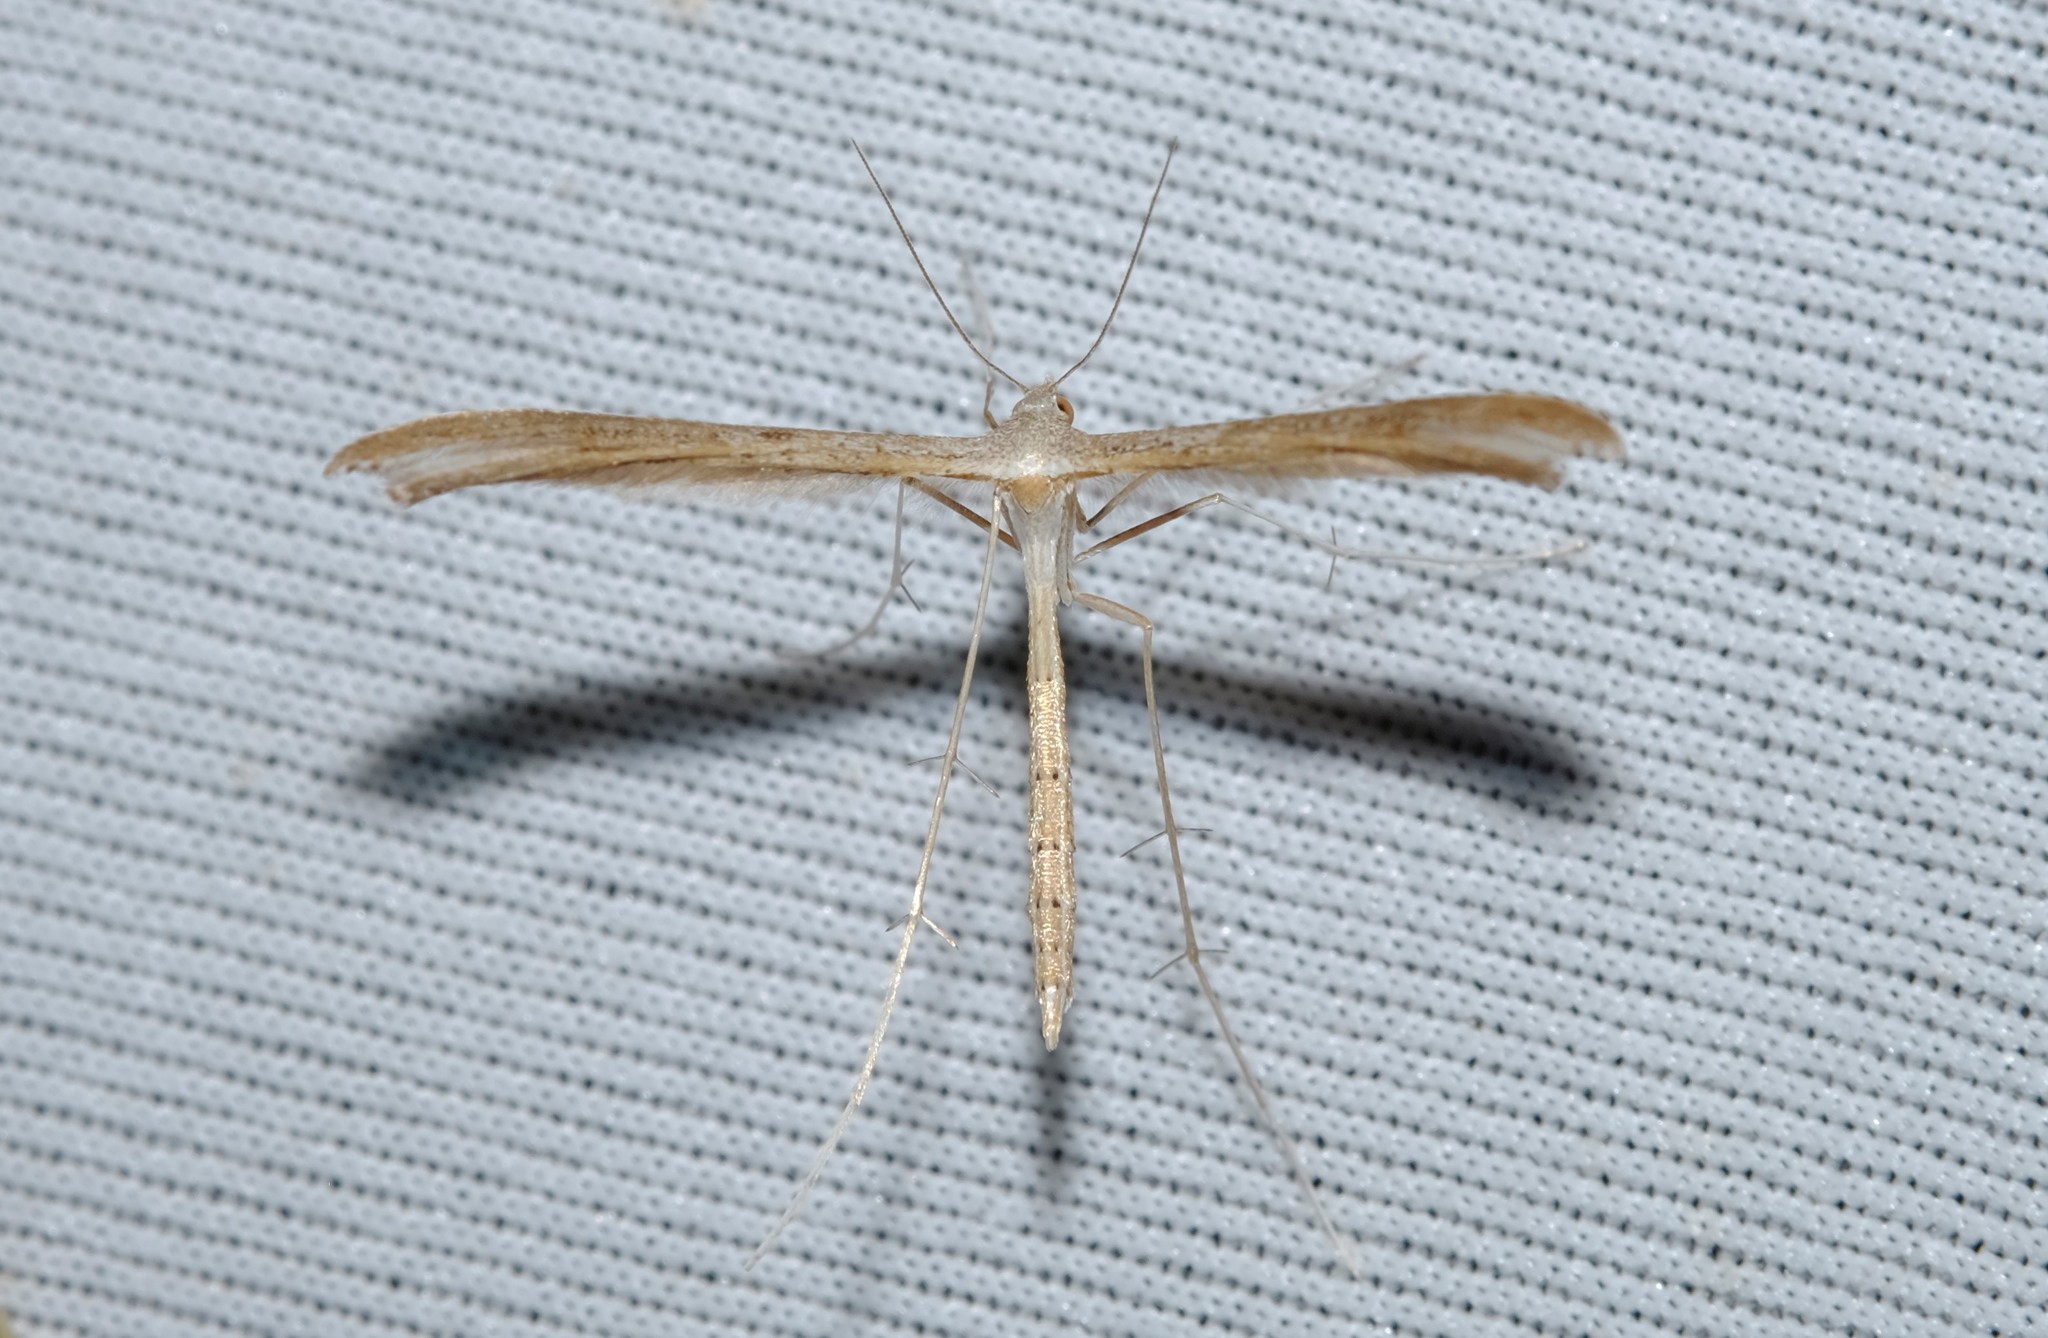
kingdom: Animalia
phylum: Arthropoda
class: Insecta
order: Lepidoptera
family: Pterophoridae
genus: Stenoptilia
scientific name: Stenoptilia zophodactylus
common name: Dowdy plume
